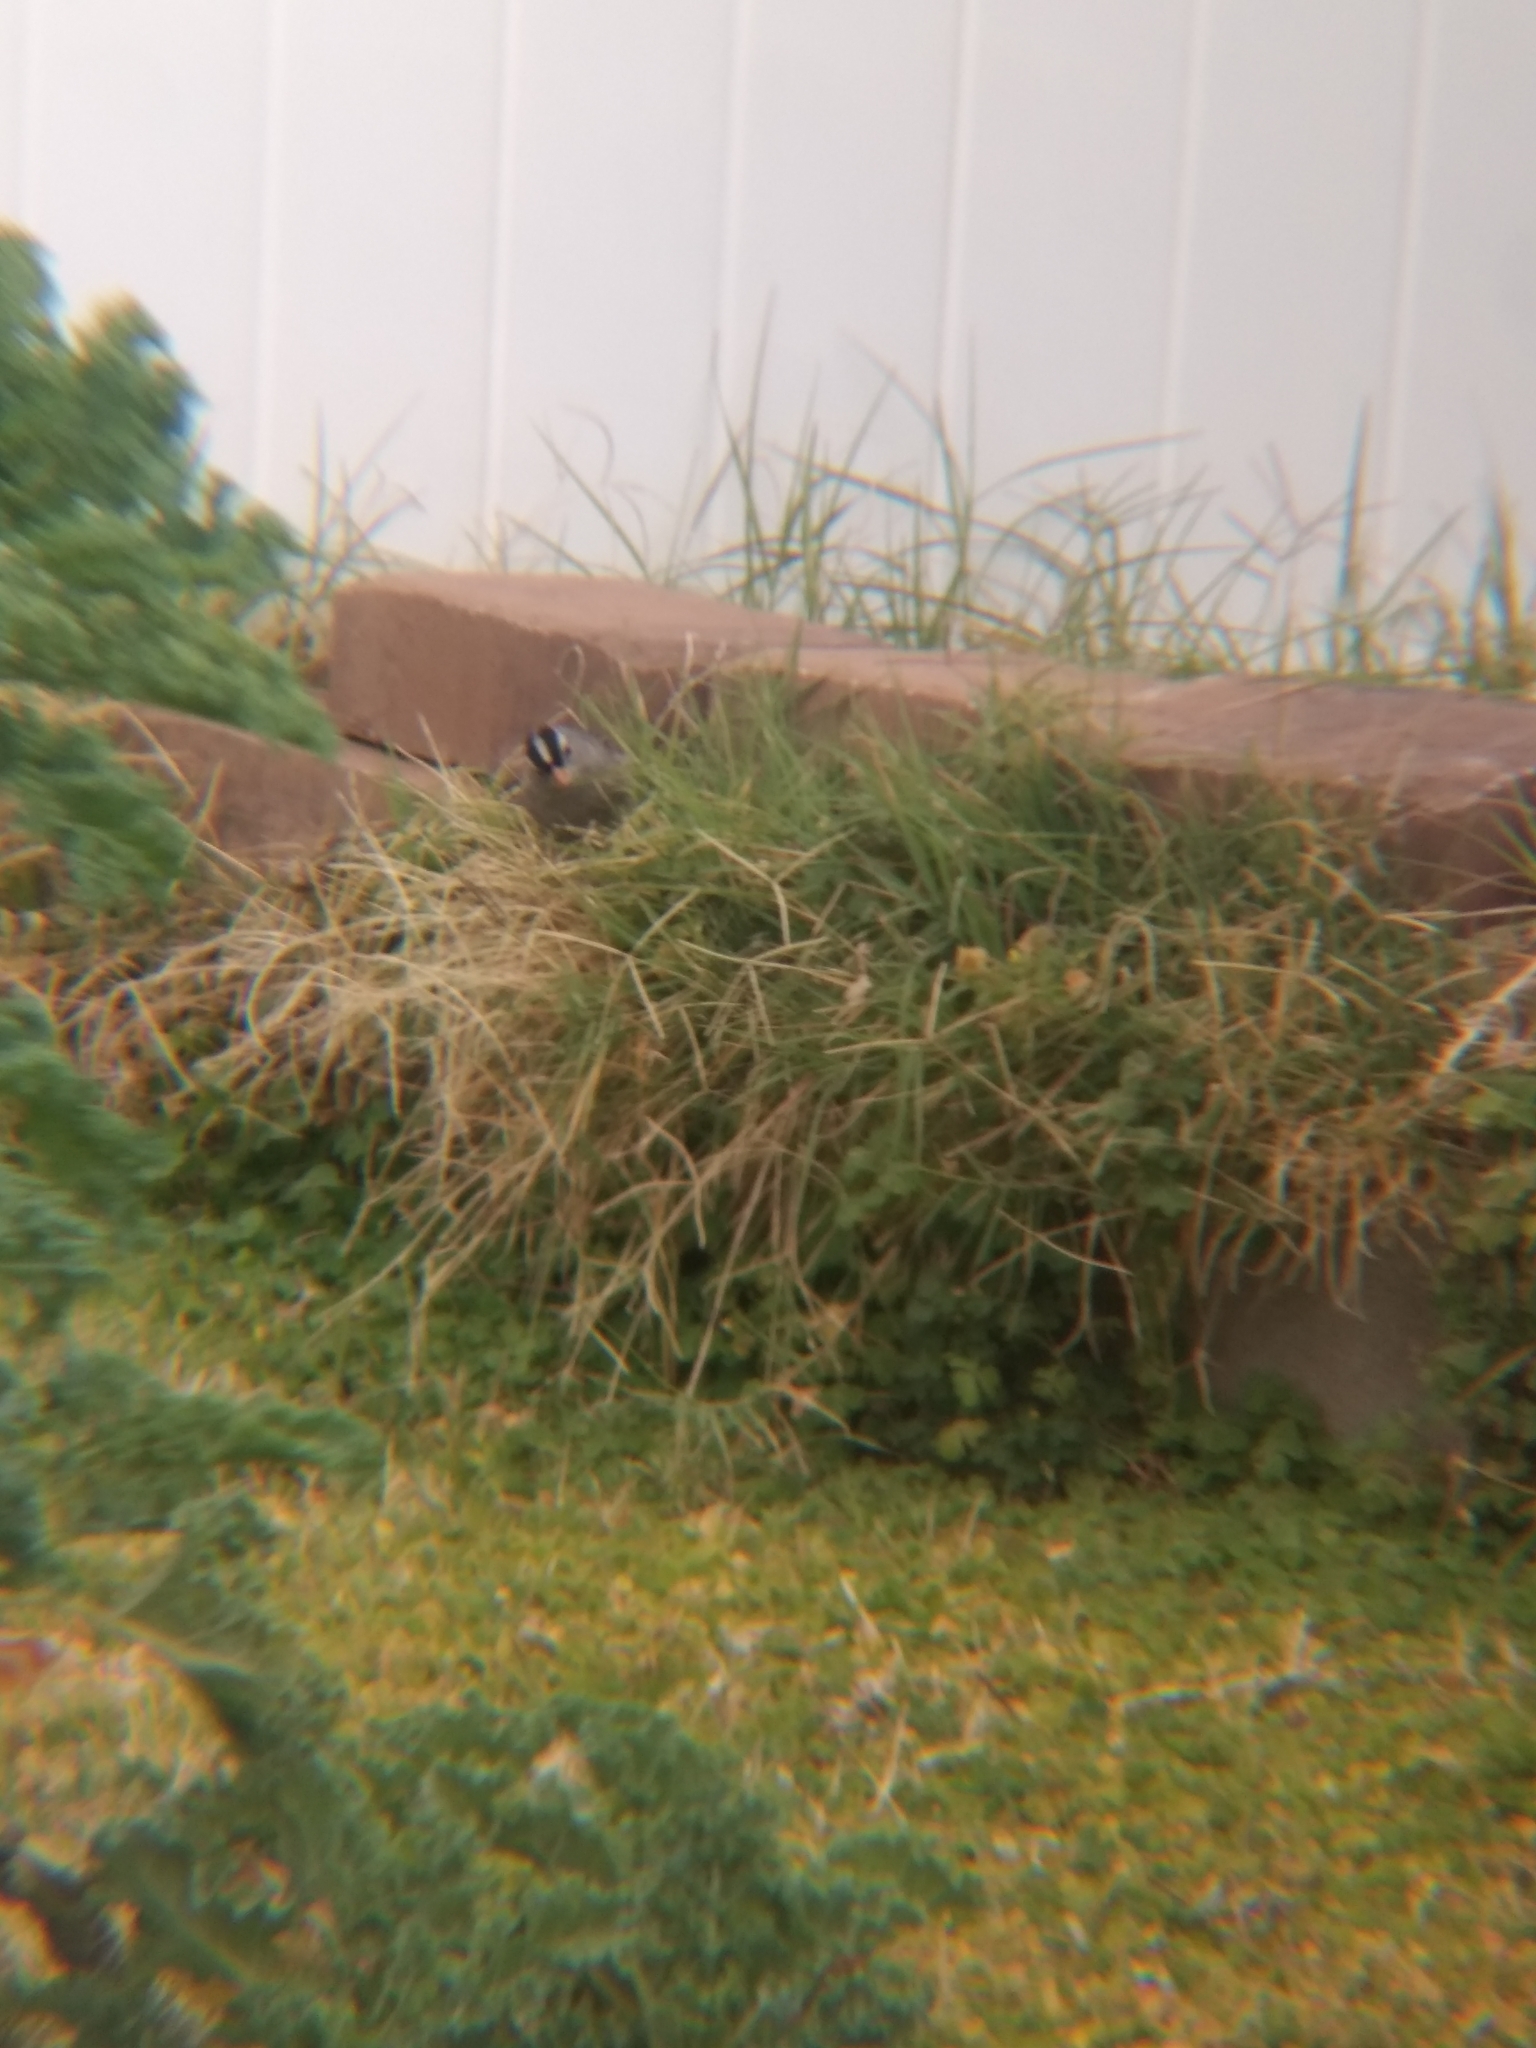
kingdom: Animalia
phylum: Chordata
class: Aves
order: Passeriformes
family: Passerellidae
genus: Zonotrichia
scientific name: Zonotrichia leucophrys
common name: White-crowned sparrow
